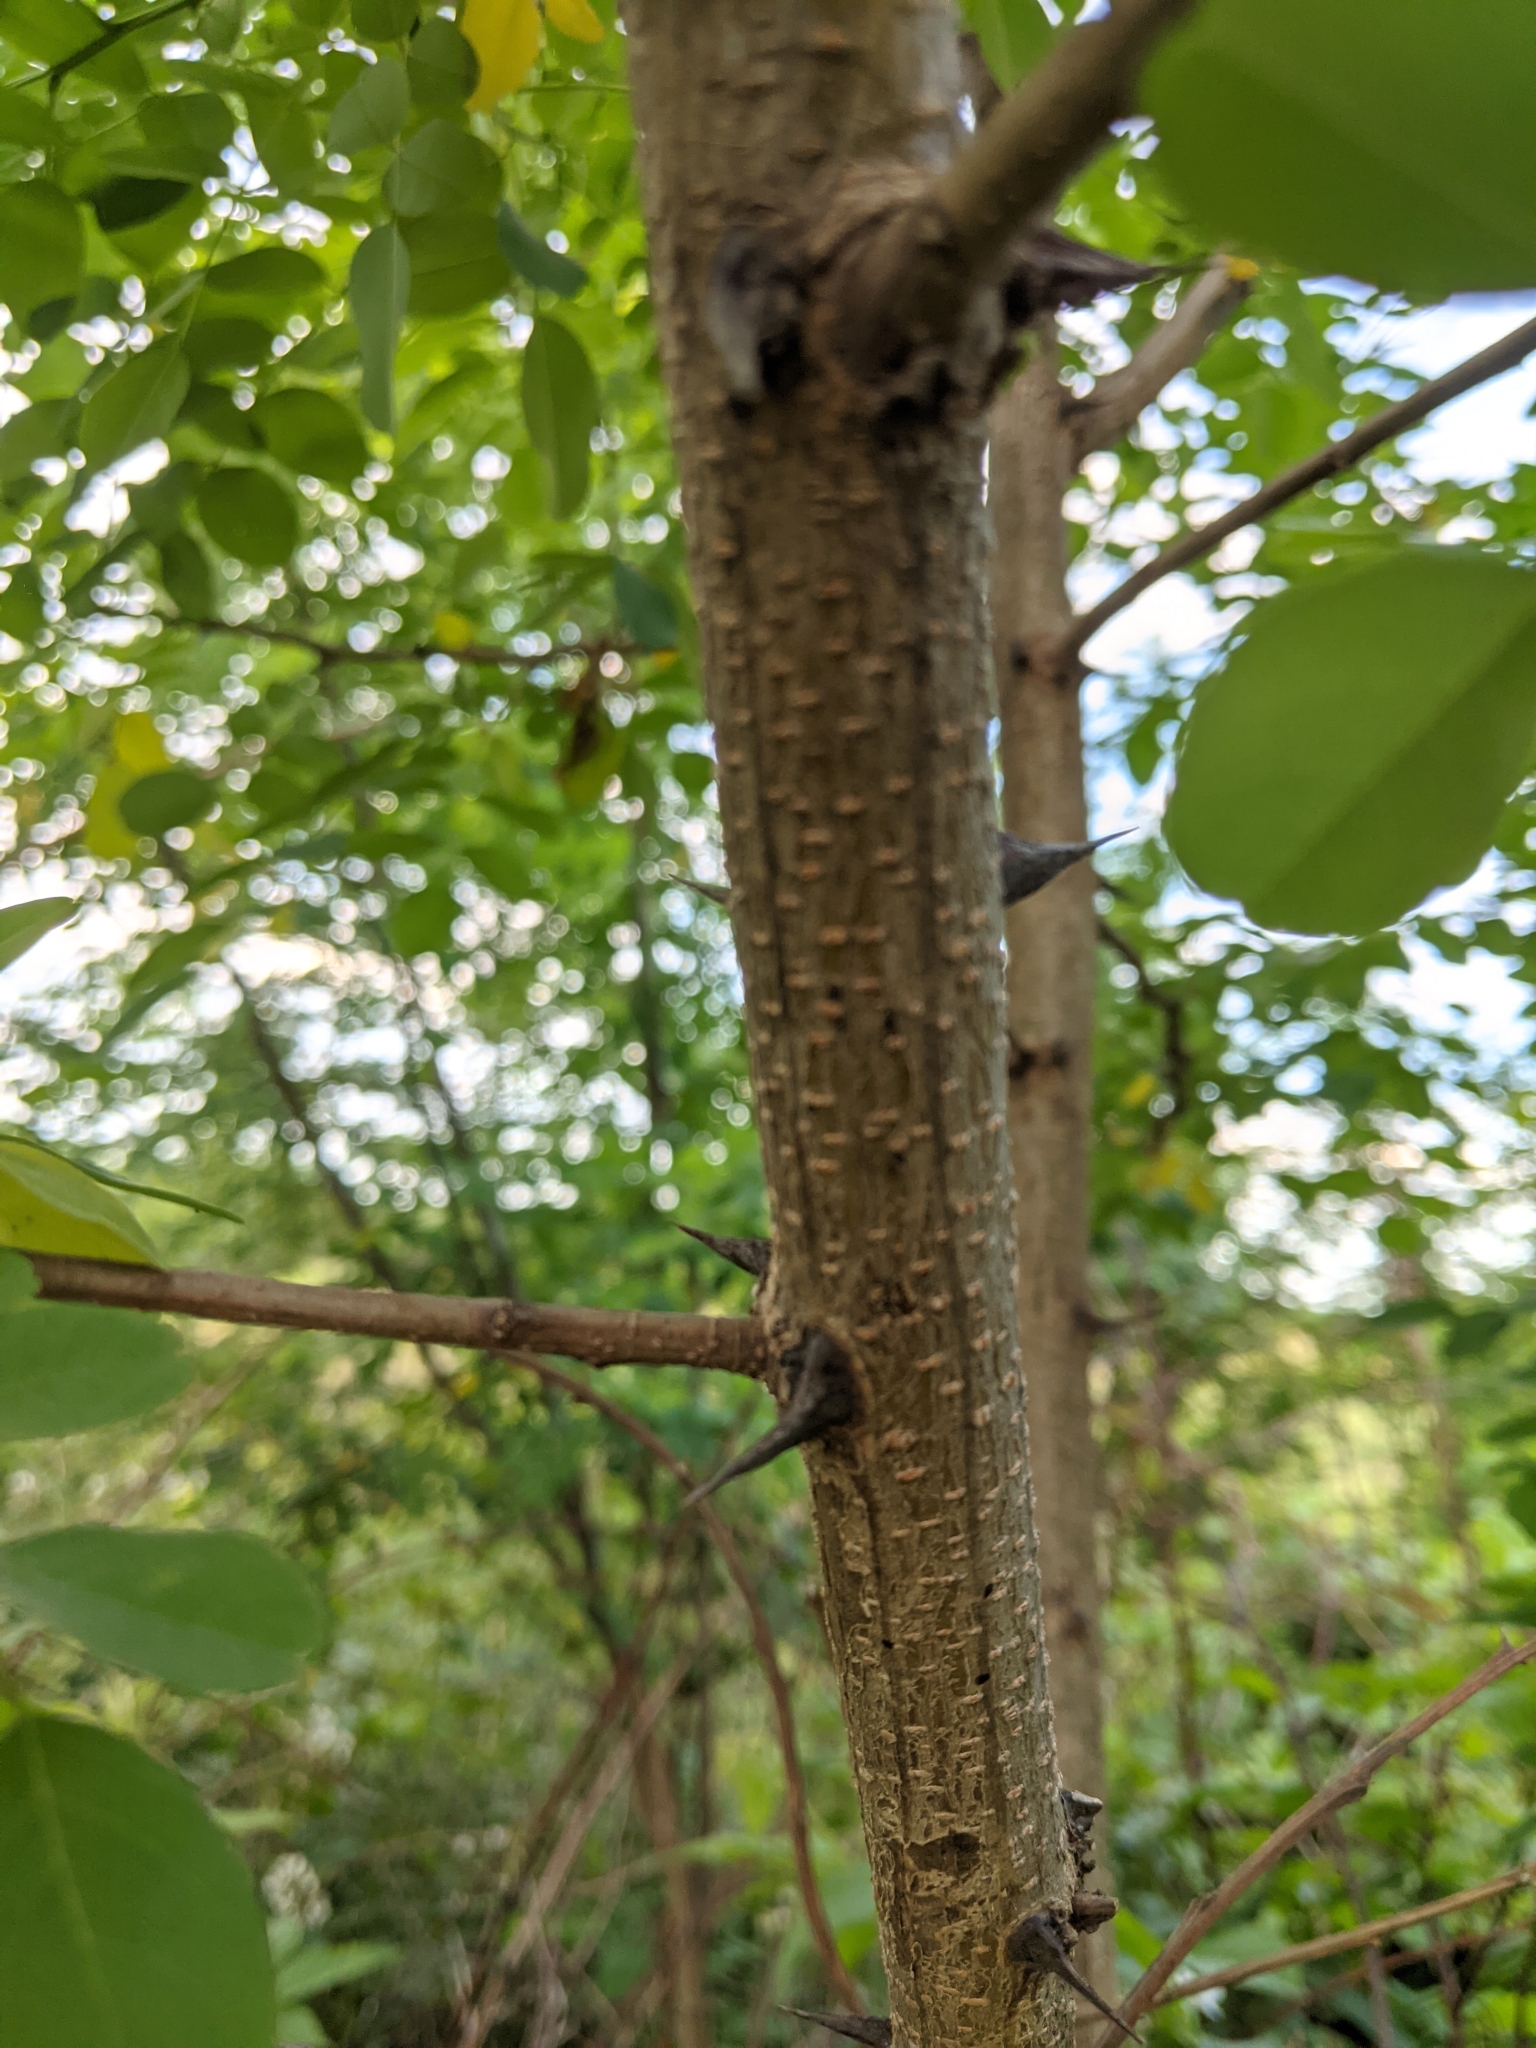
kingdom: Plantae
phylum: Tracheophyta
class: Magnoliopsida
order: Fabales
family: Fabaceae
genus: Robinia
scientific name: Robinia pseudoacacia
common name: Black locust
